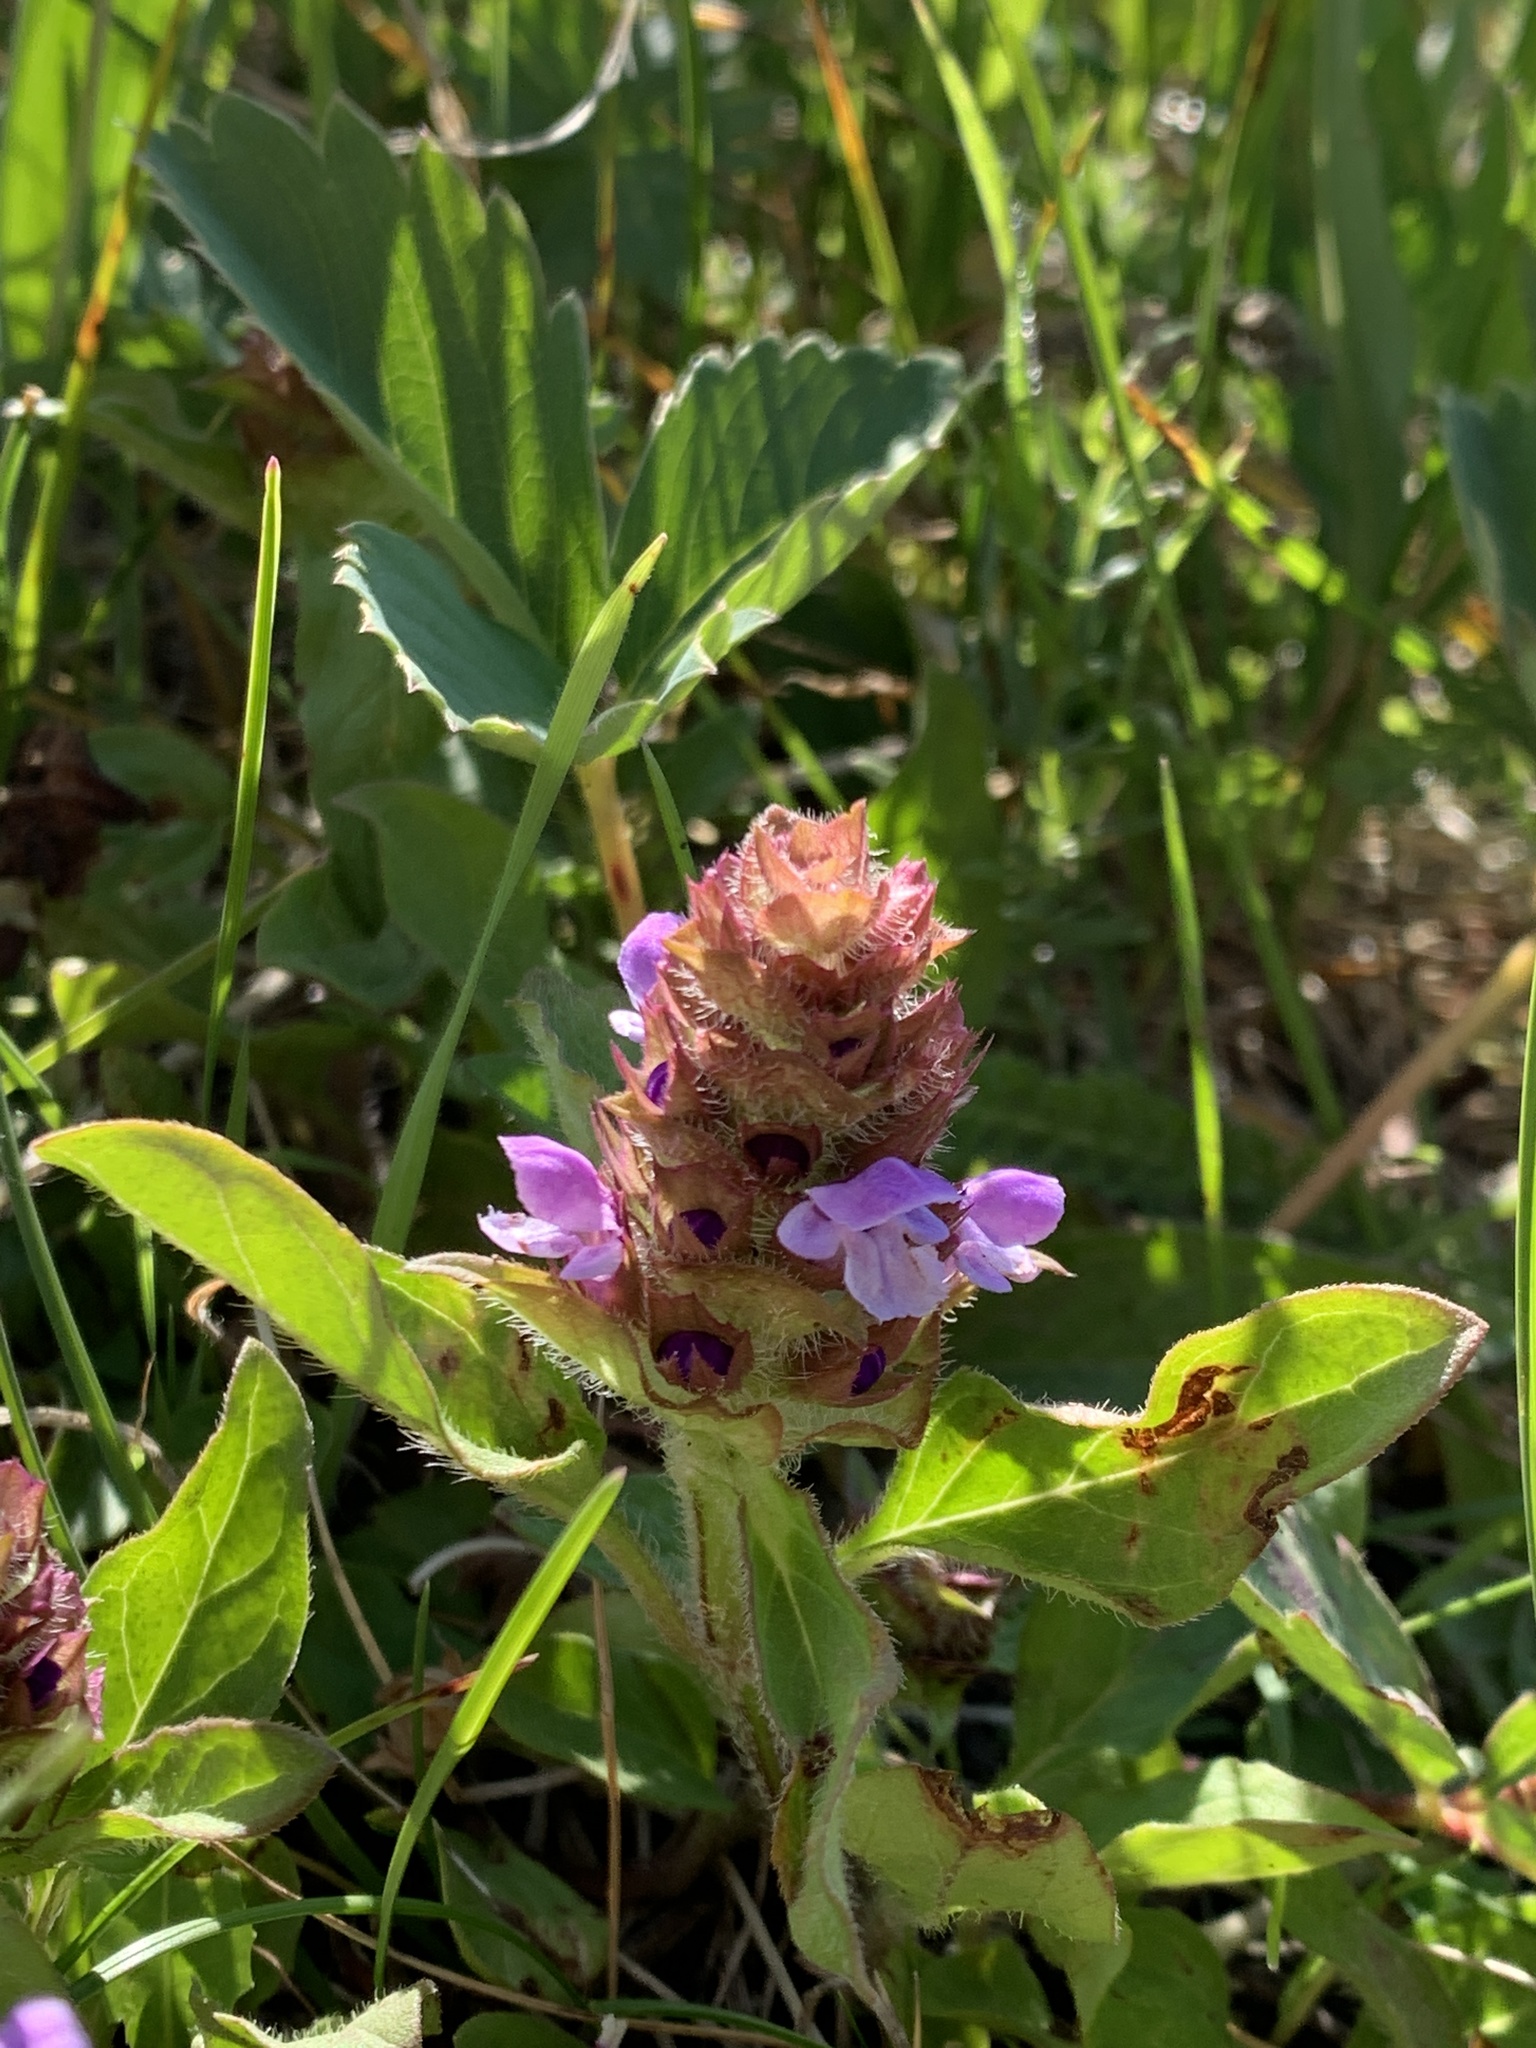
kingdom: Plantae
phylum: Tracheophyta
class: Magnoliopsida
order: Lamiales
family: Lamiaceae
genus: Prunella
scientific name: Prunella vulgaris
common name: Heal-all
